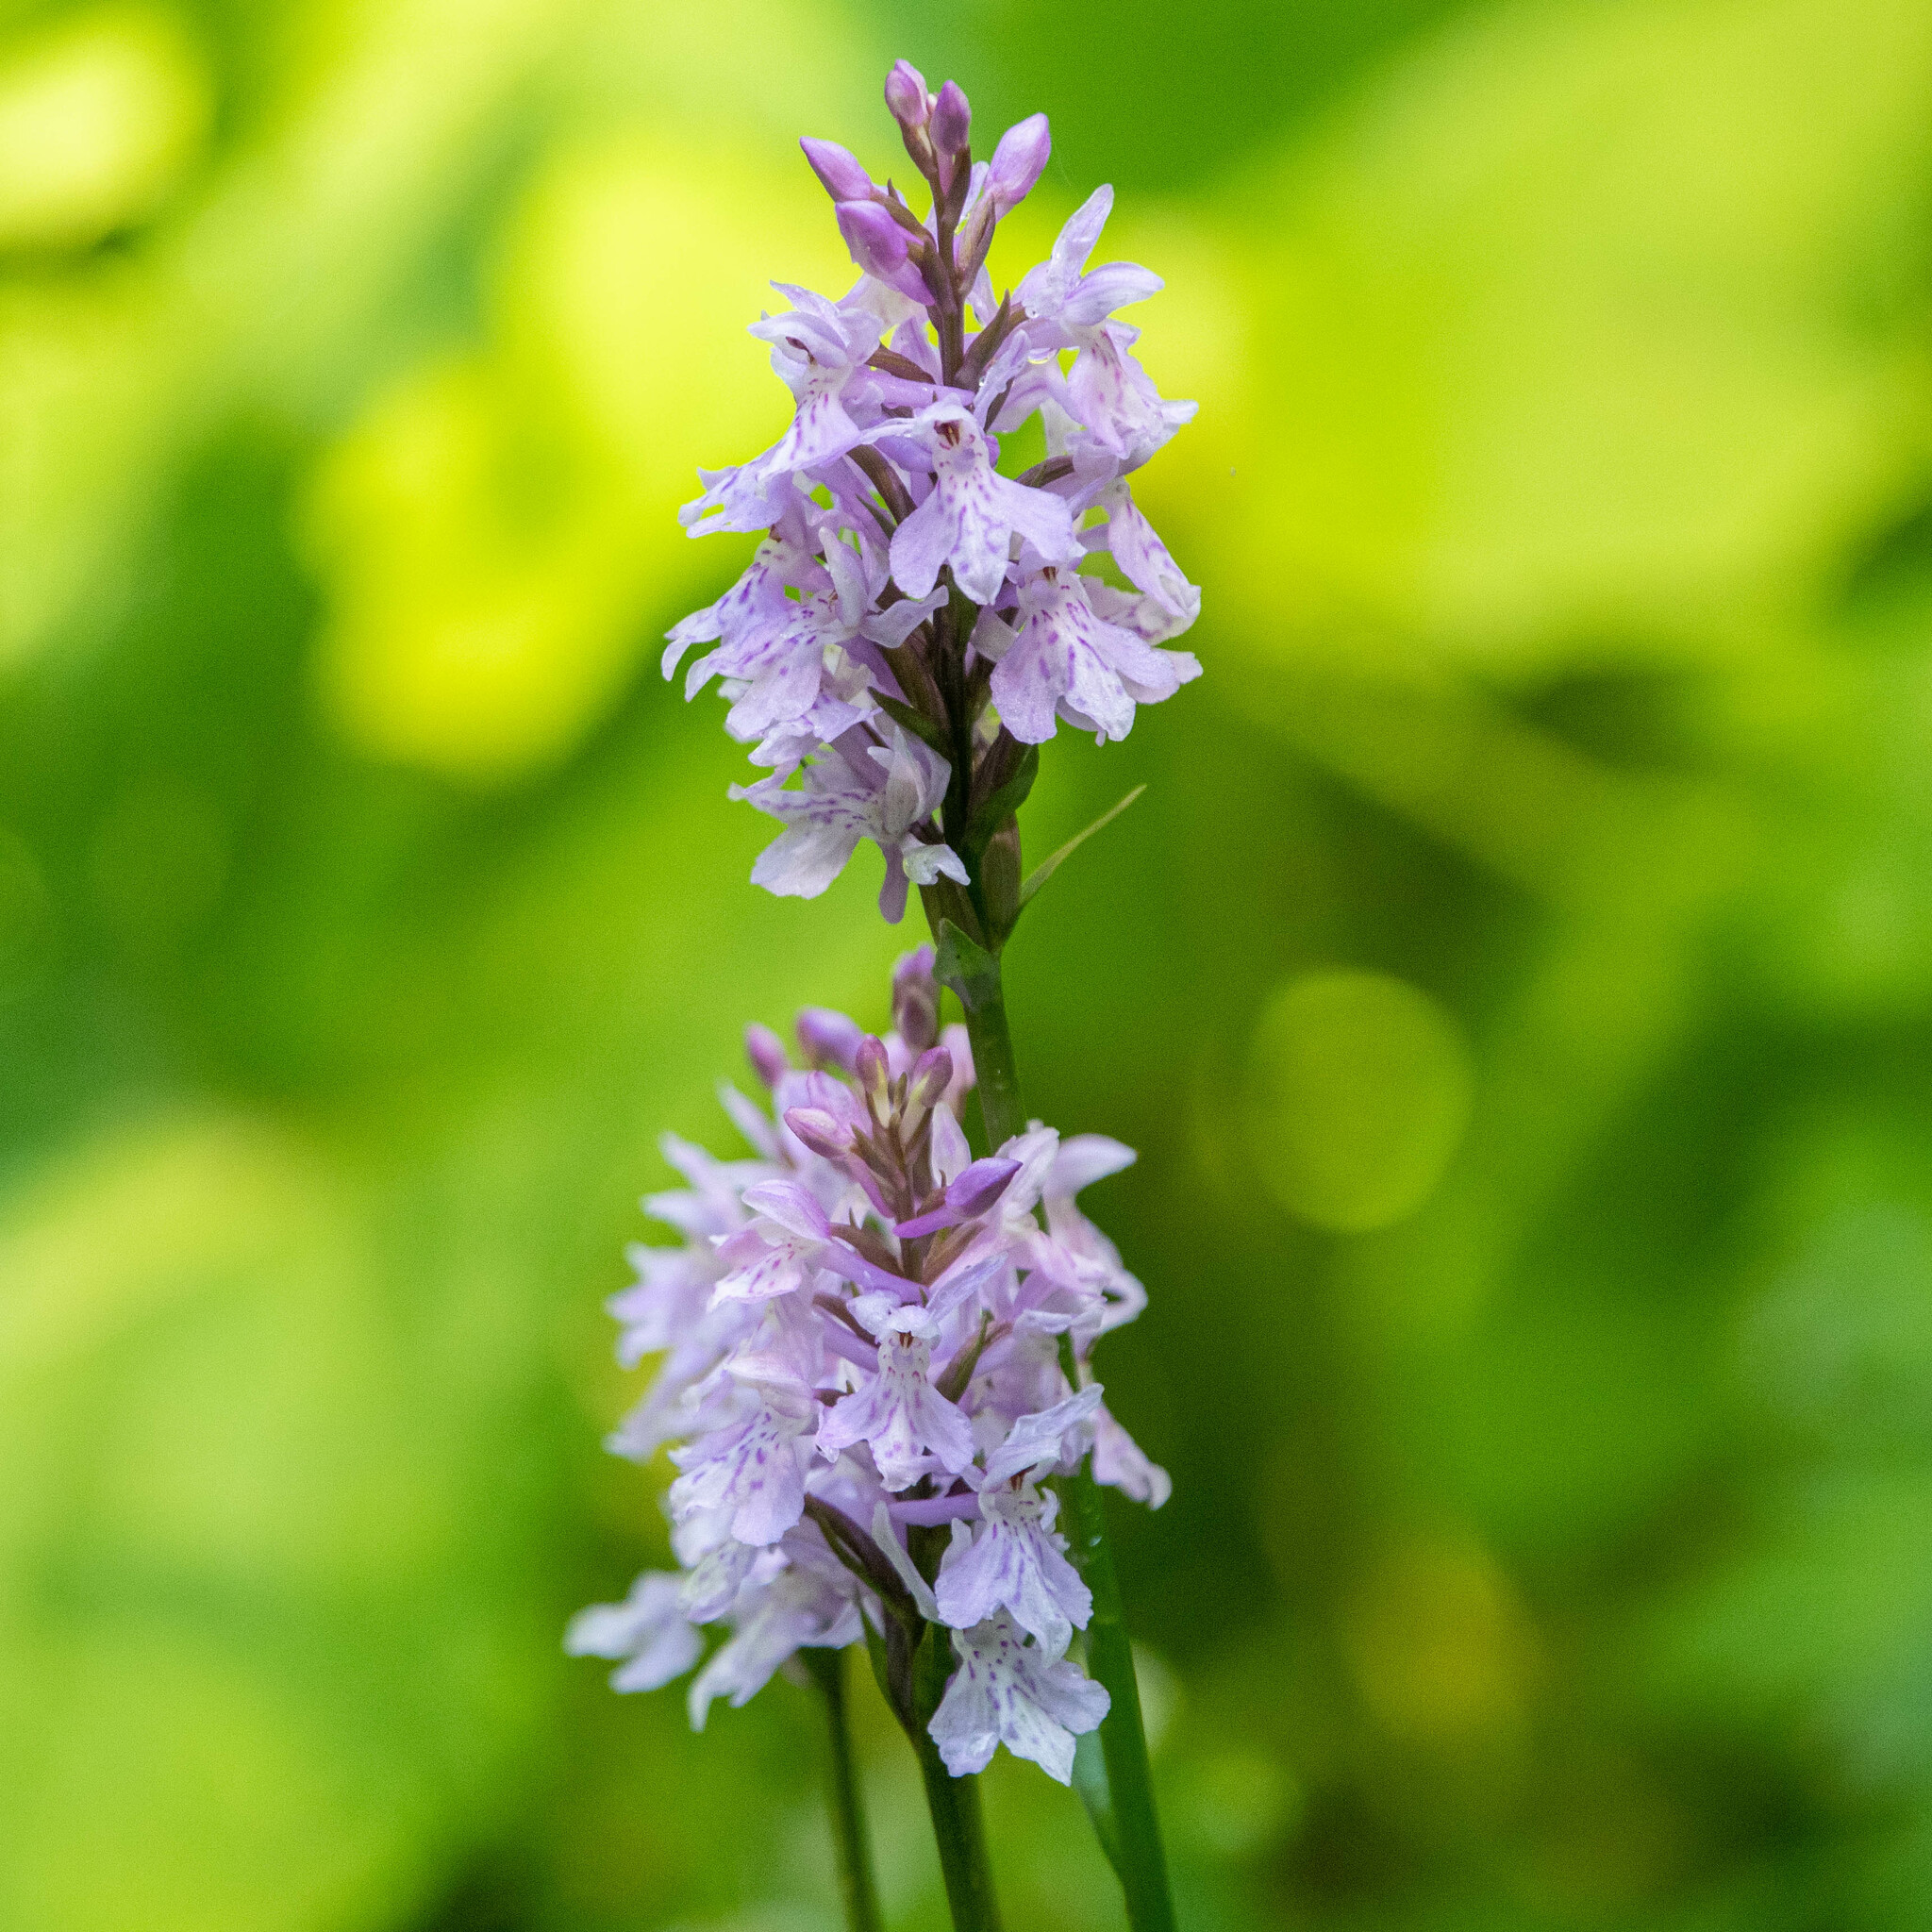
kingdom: Plantae
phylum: Tracheophyta
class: Liliopsida
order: Asparagales
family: Orchidaceae
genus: Dactylorhiza
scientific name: Dactylorhiza maculata
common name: Heath spotted-orchid
